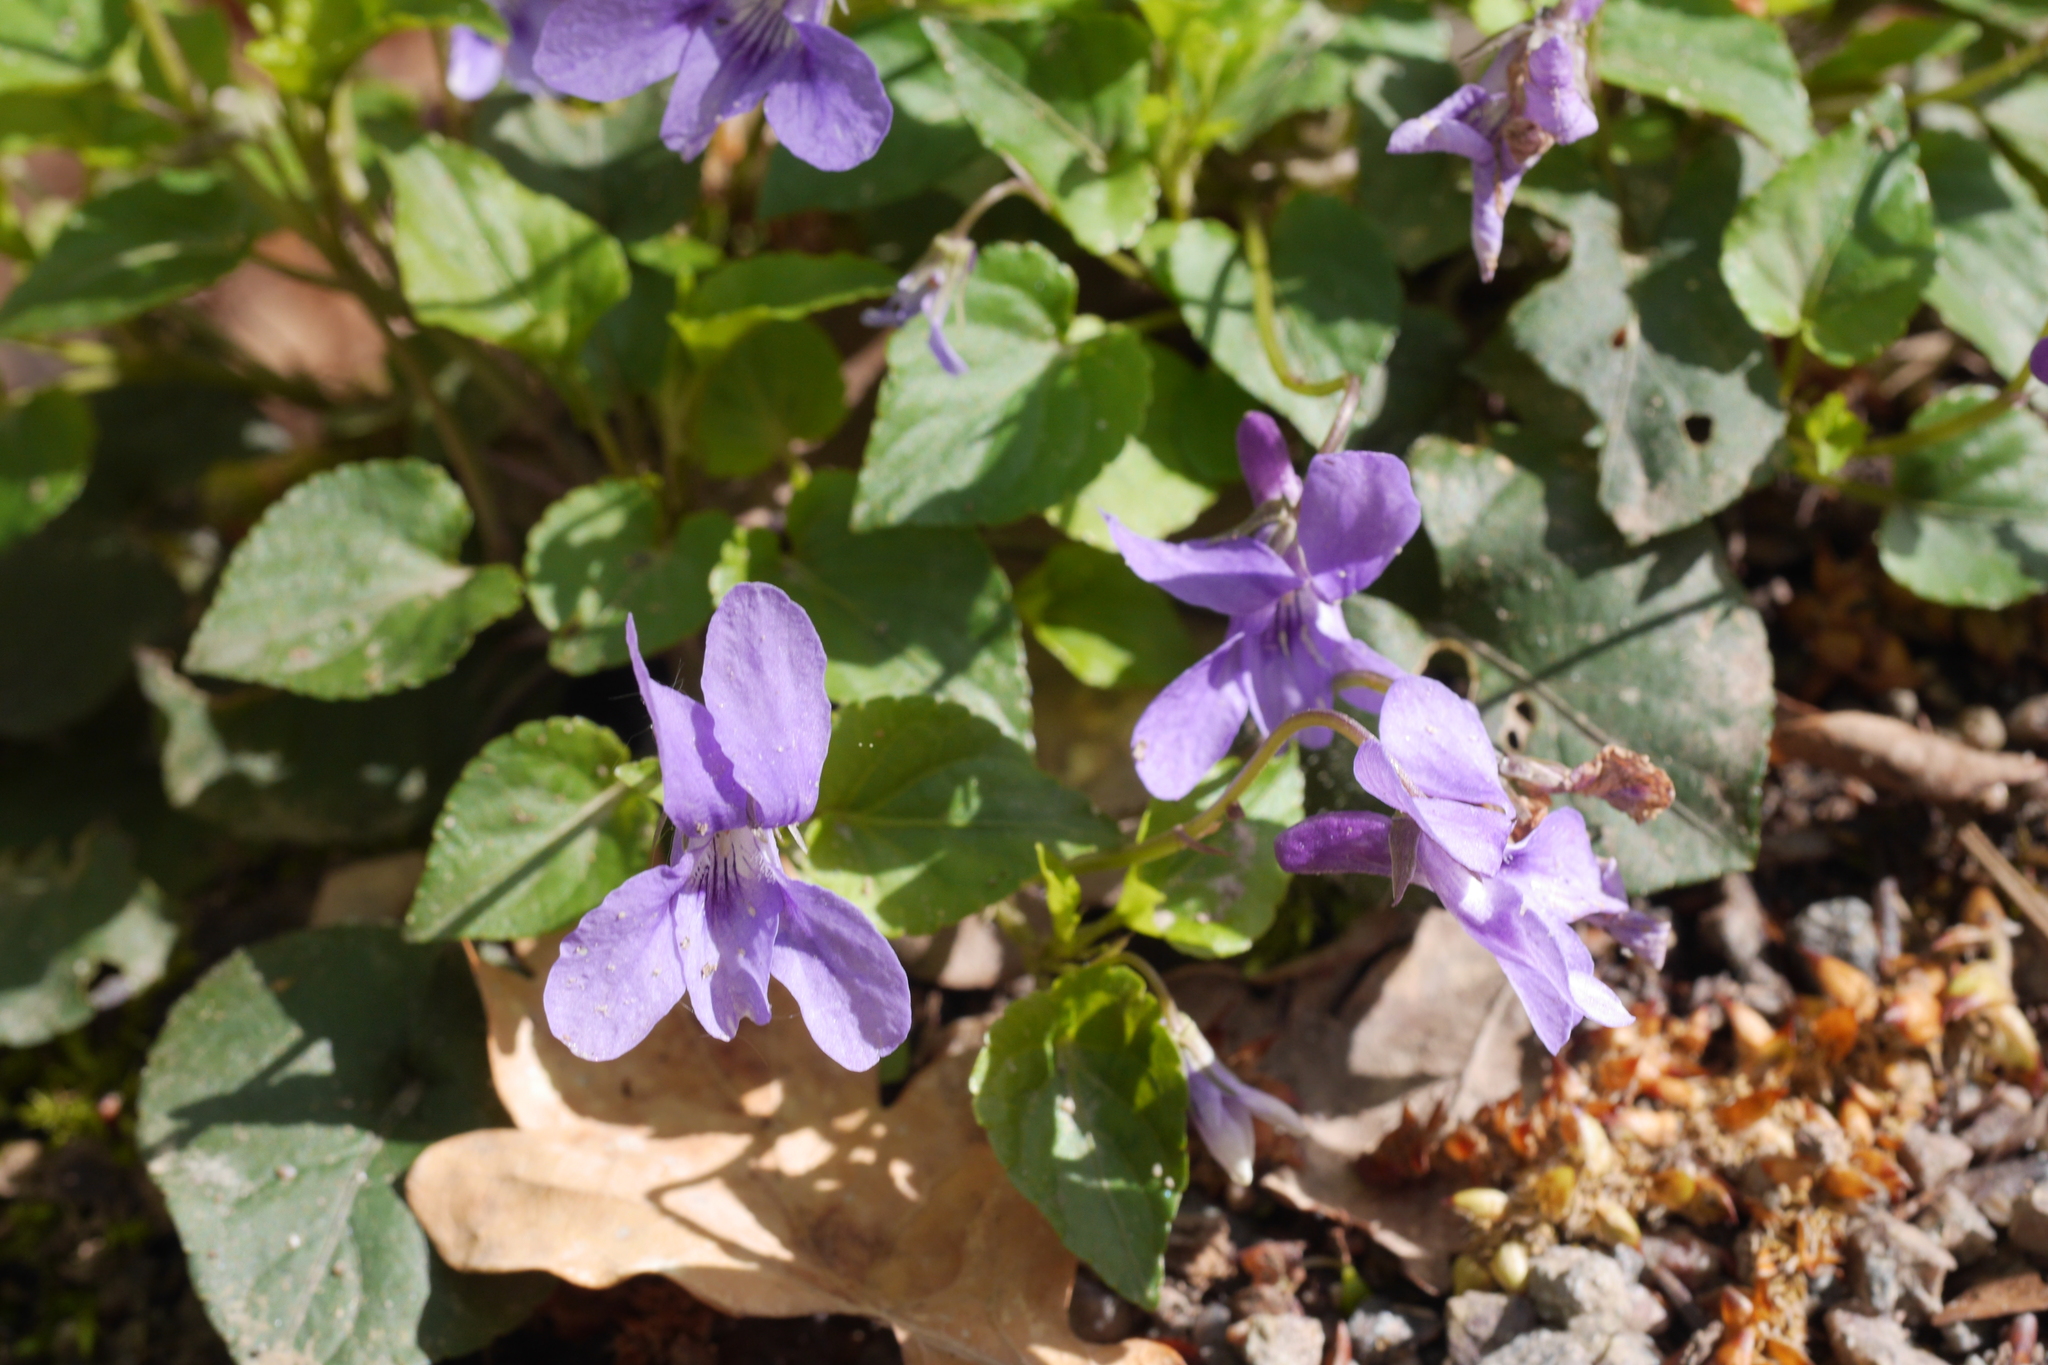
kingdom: Plantae
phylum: Tracheophyta
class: Magnoliopsida
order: Malpighiales
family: Violaceae
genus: Viola
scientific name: Viola reichenbachiana
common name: Early dog-violet
